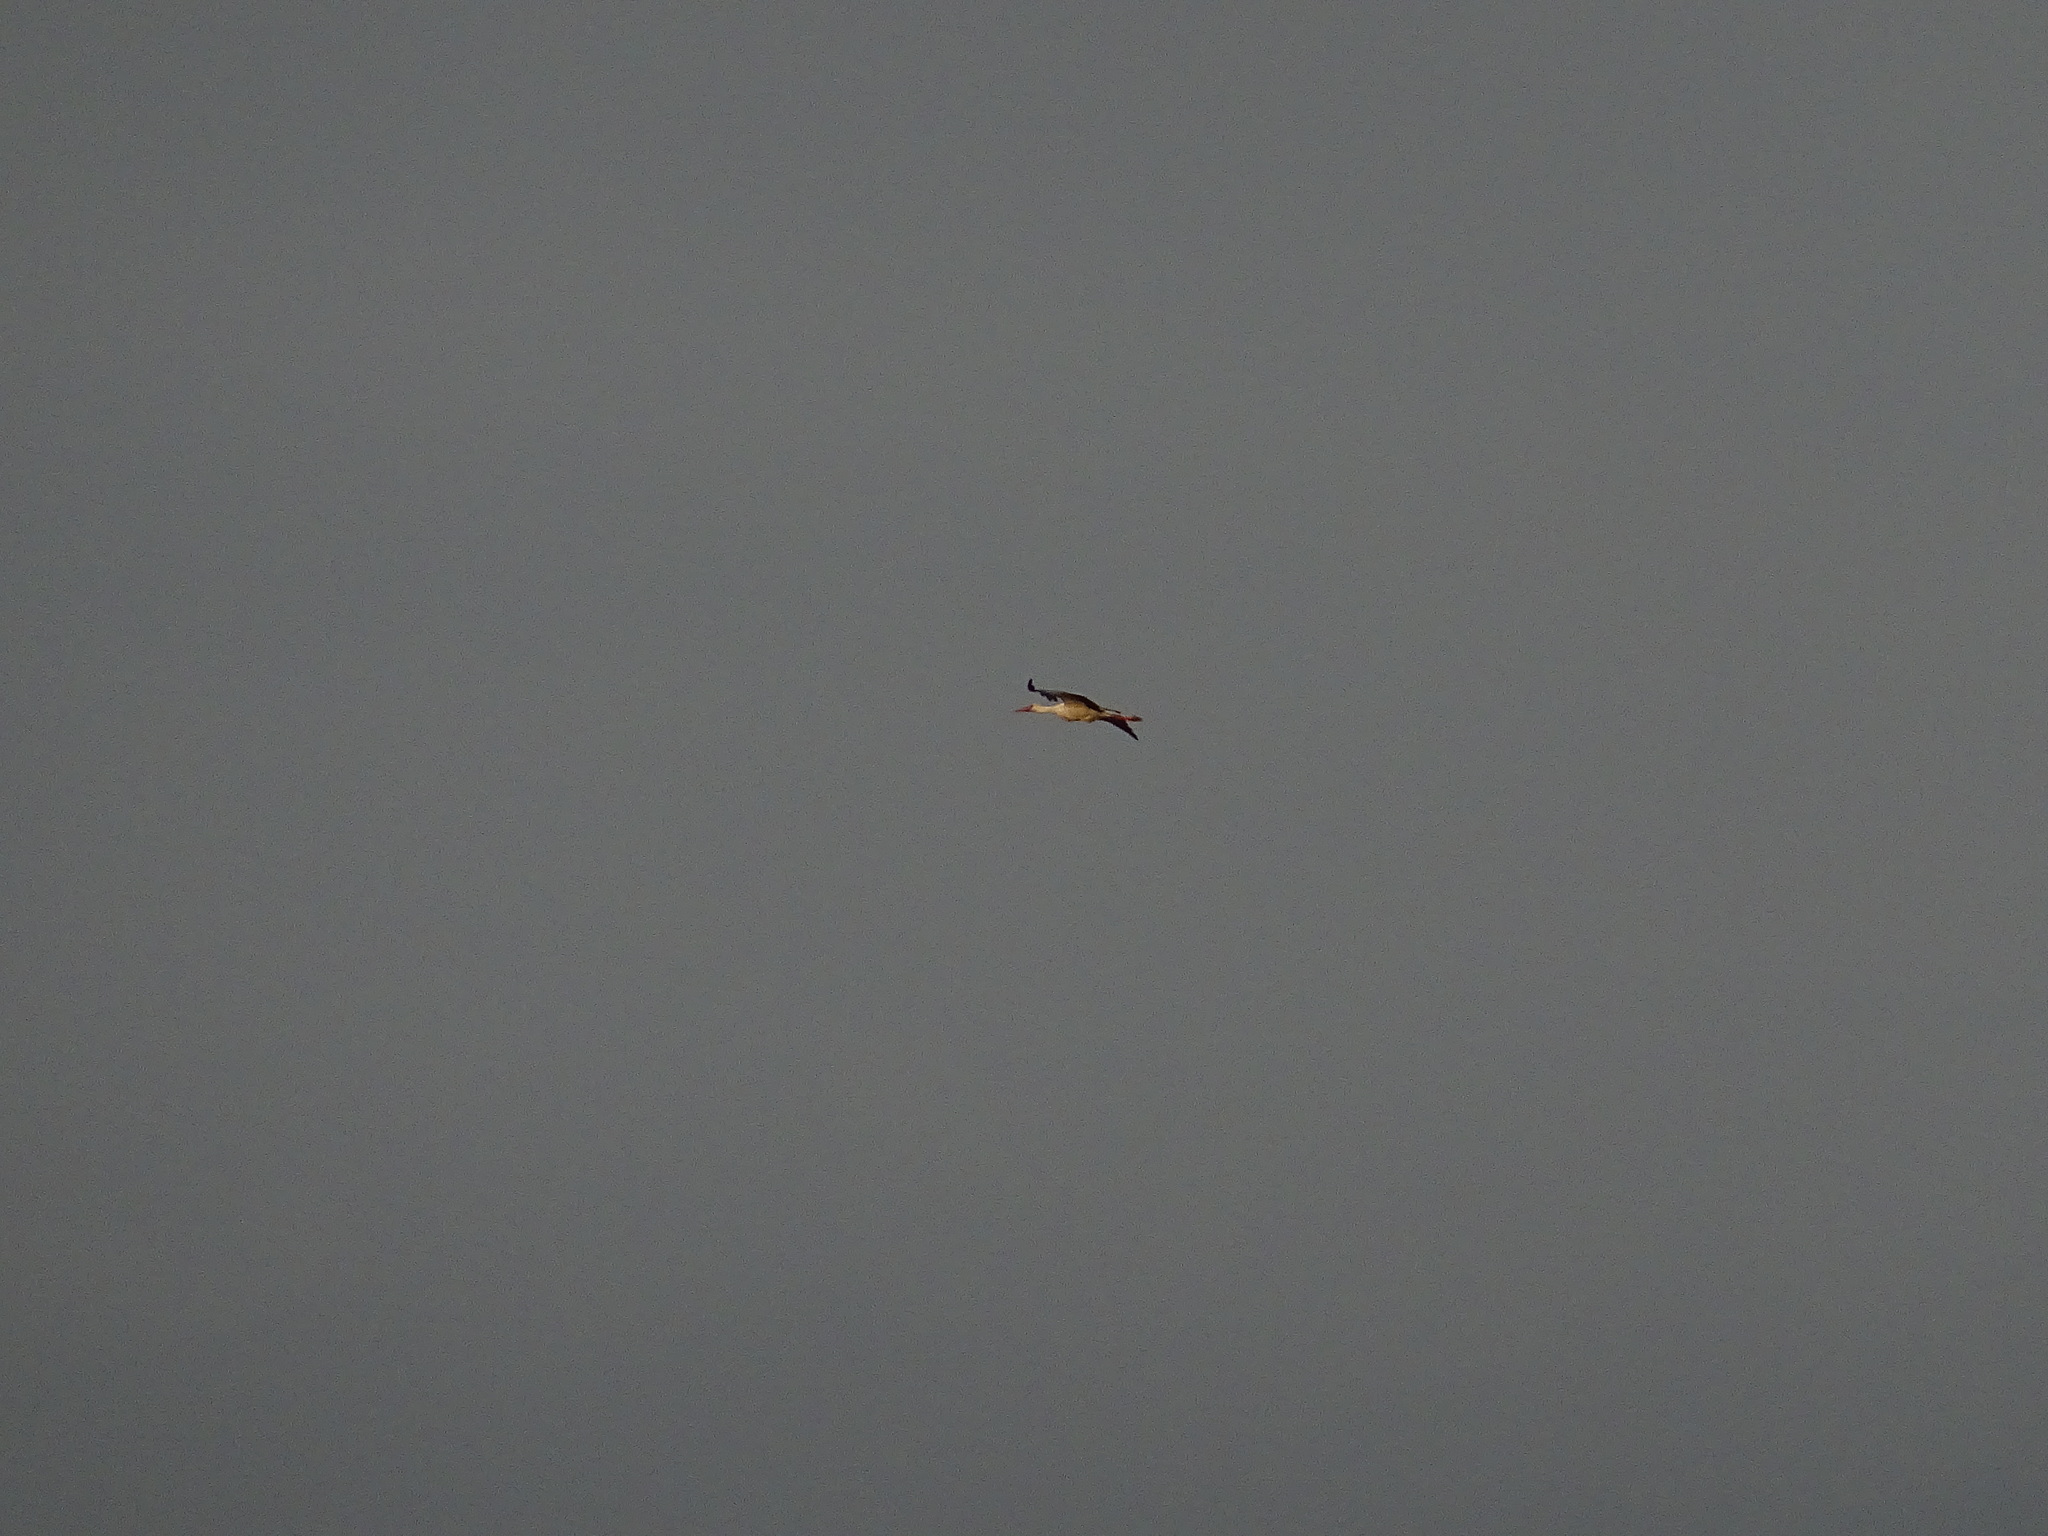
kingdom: Animalia
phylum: Chordata
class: Aves
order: Ciconiiformes
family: Ciconiidae
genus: Ciconia
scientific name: Ciconia ciconia
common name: White stork
